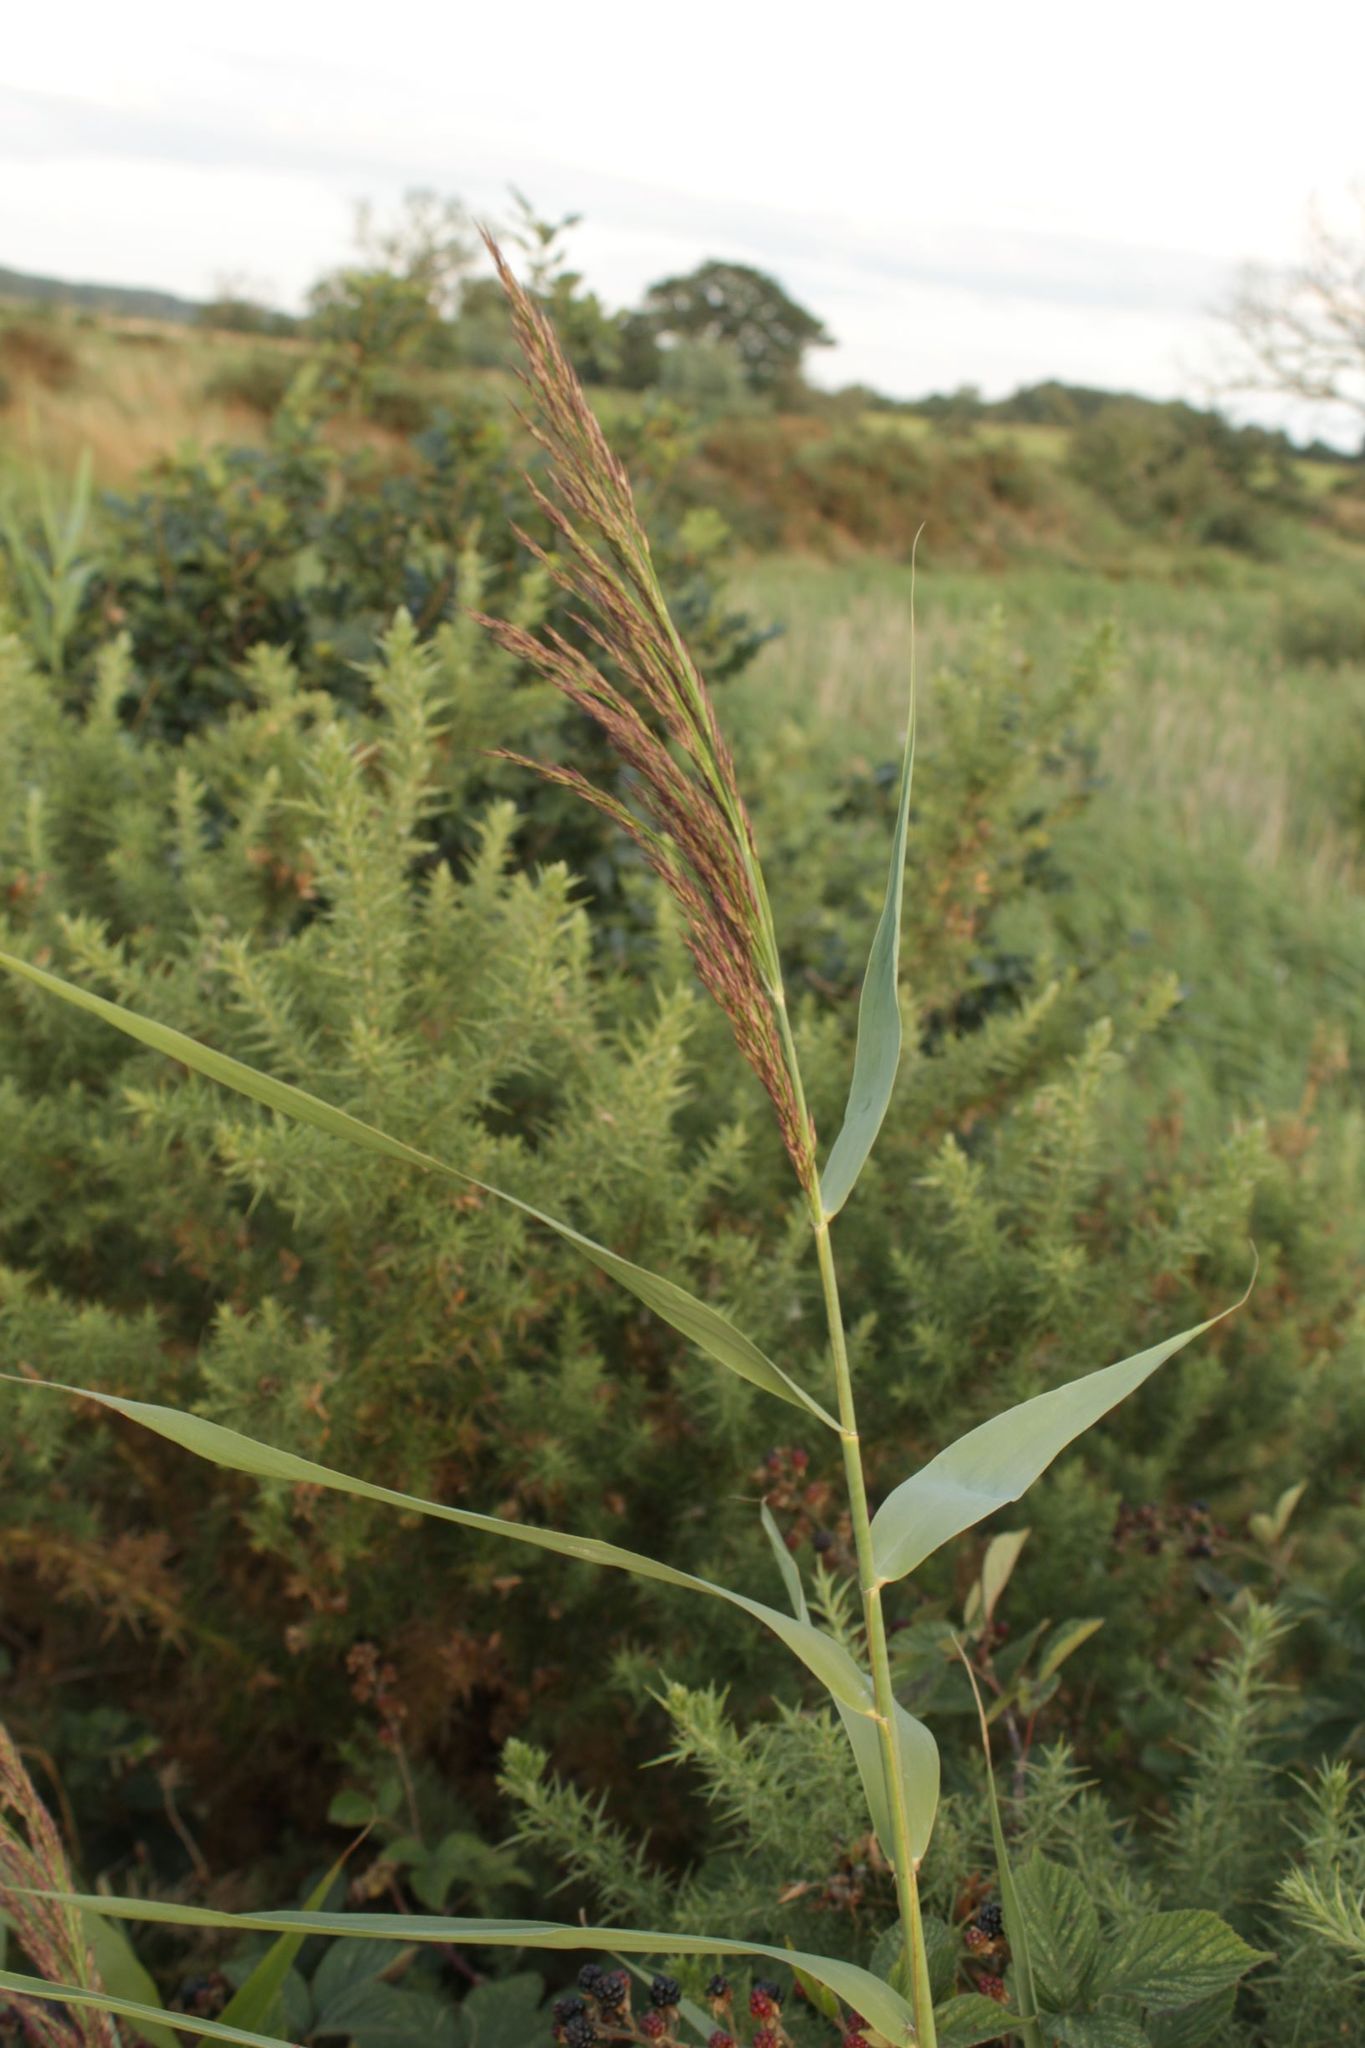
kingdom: Plantae
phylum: Tracheophyta
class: Liliopsida
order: Poales
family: Poaceae
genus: Phragmites
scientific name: Phragmites australis
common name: Common reed
